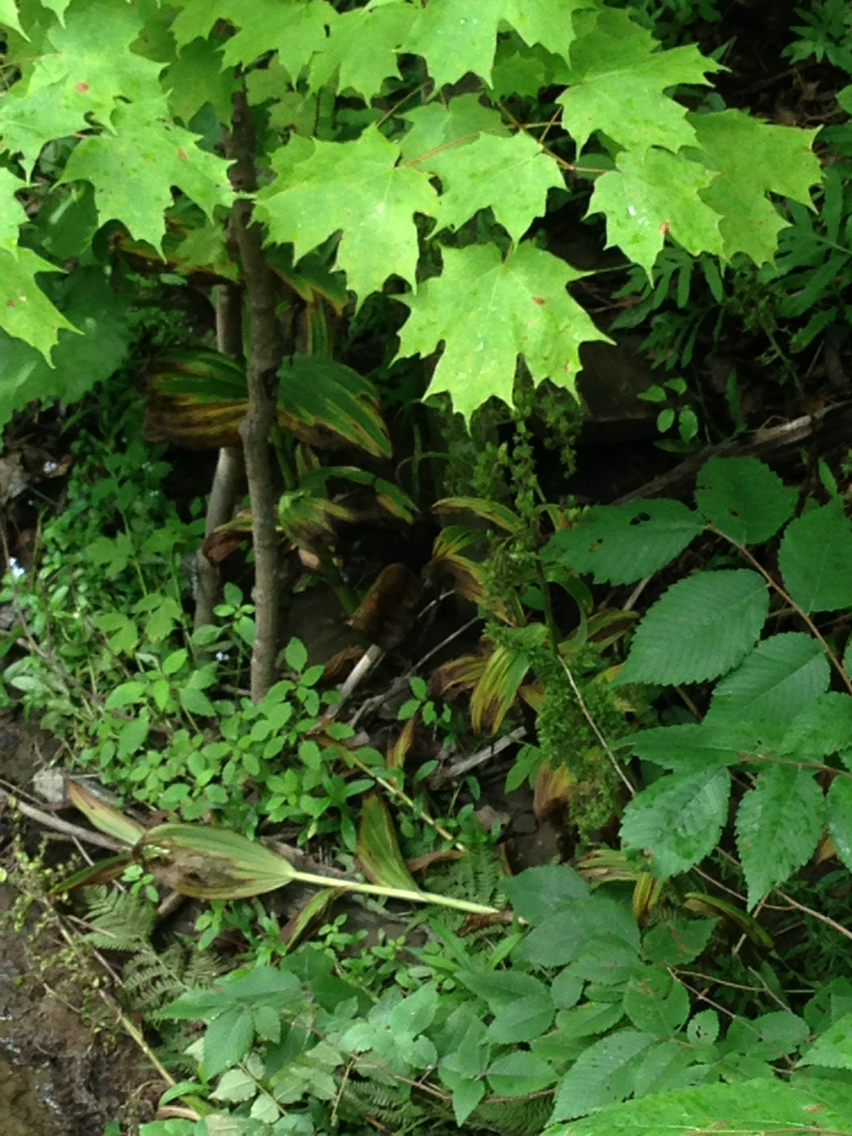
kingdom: Plantae
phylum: Tracheophyta
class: Liliopsida
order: Liliales
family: Melanthiaceae
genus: Veratrum
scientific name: Veratrum viride
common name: American false hellebore
